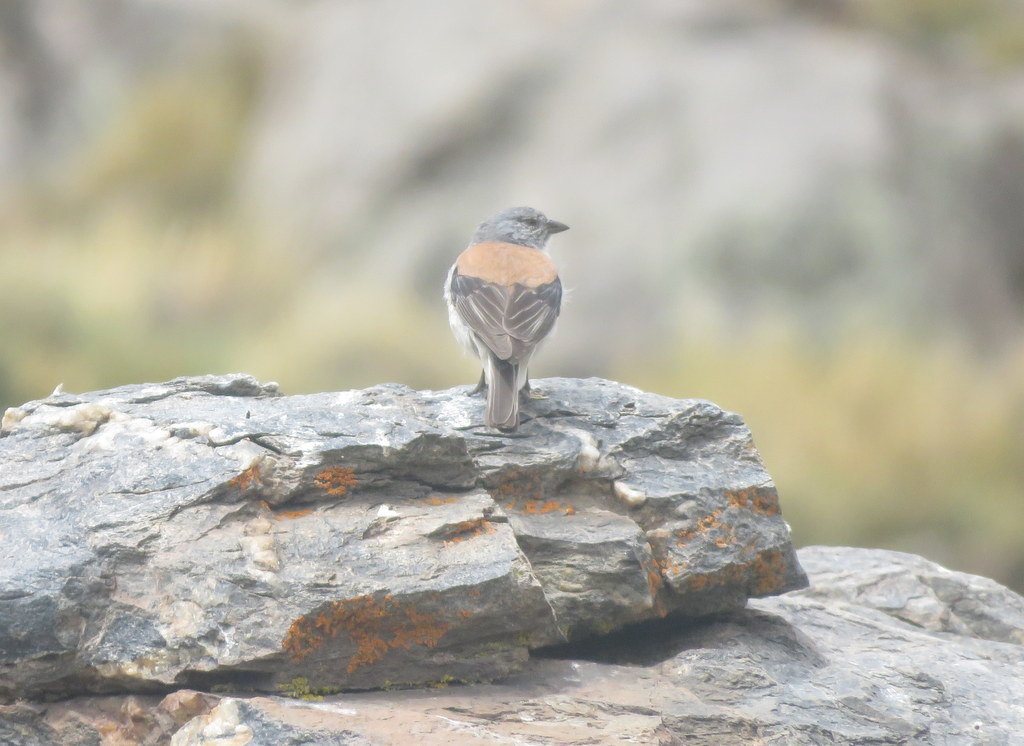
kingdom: Animalia
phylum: Chordata
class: Aves
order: Passeriformes
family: Thraupidae
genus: Idiopsar
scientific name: Idiopsar dorsalis
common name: Red-backed sierra finch
